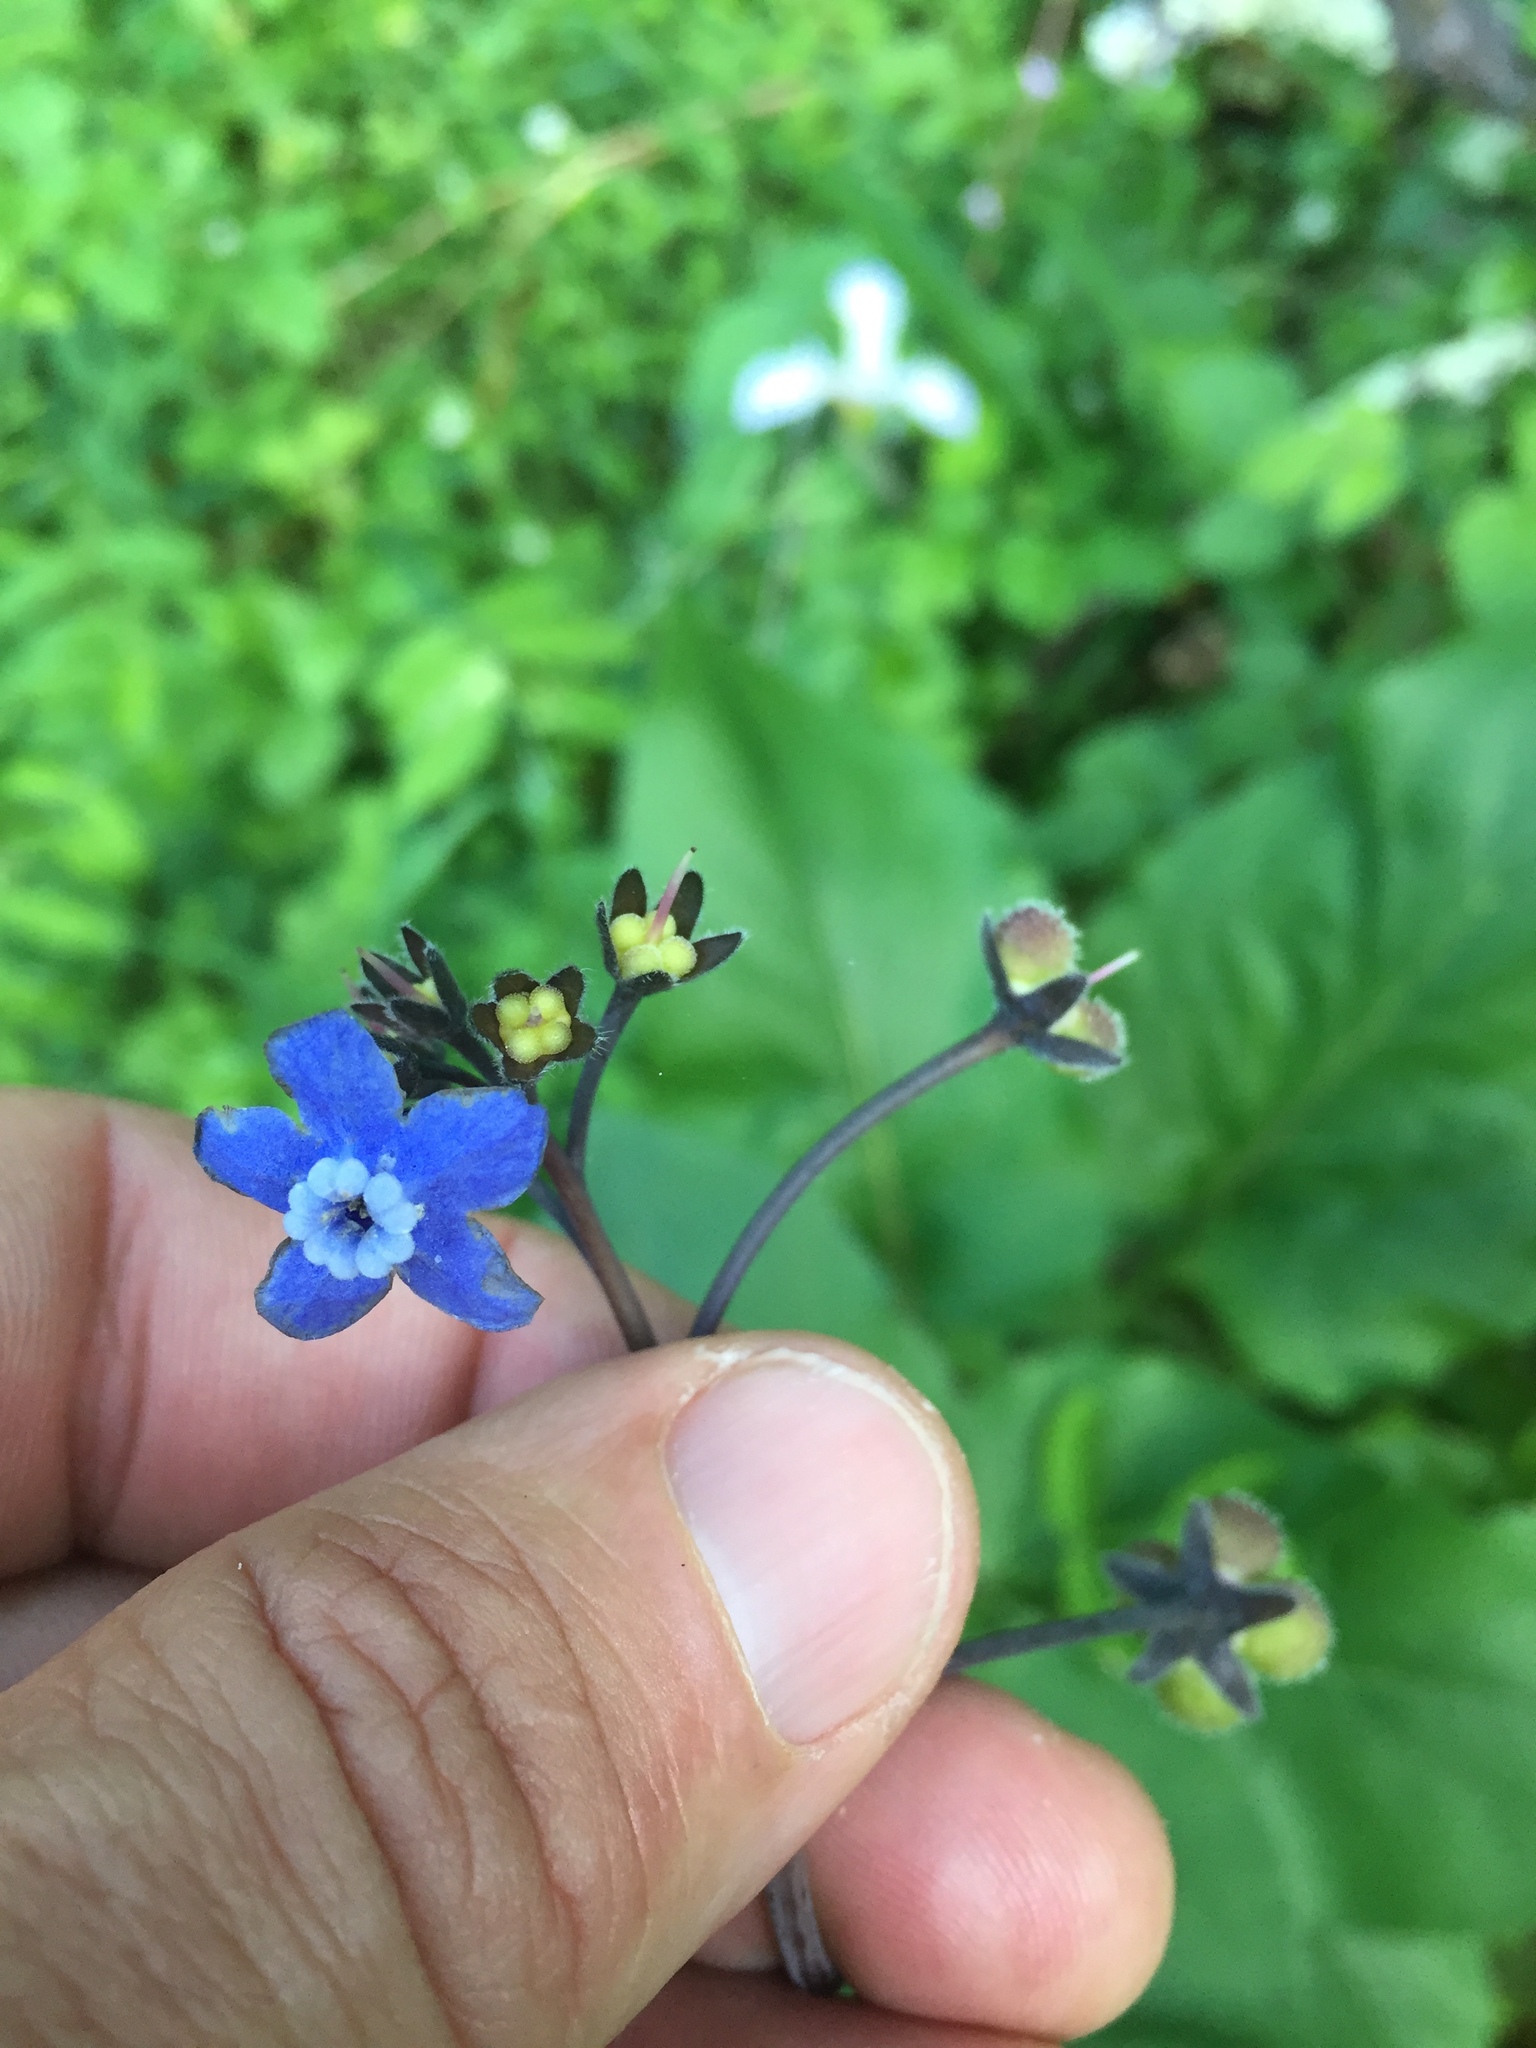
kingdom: Plantae
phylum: Tracheophyta
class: Magnoliopsida
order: Boraginales
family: Boraginaceae
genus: Adelinia
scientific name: Adelinia grande
